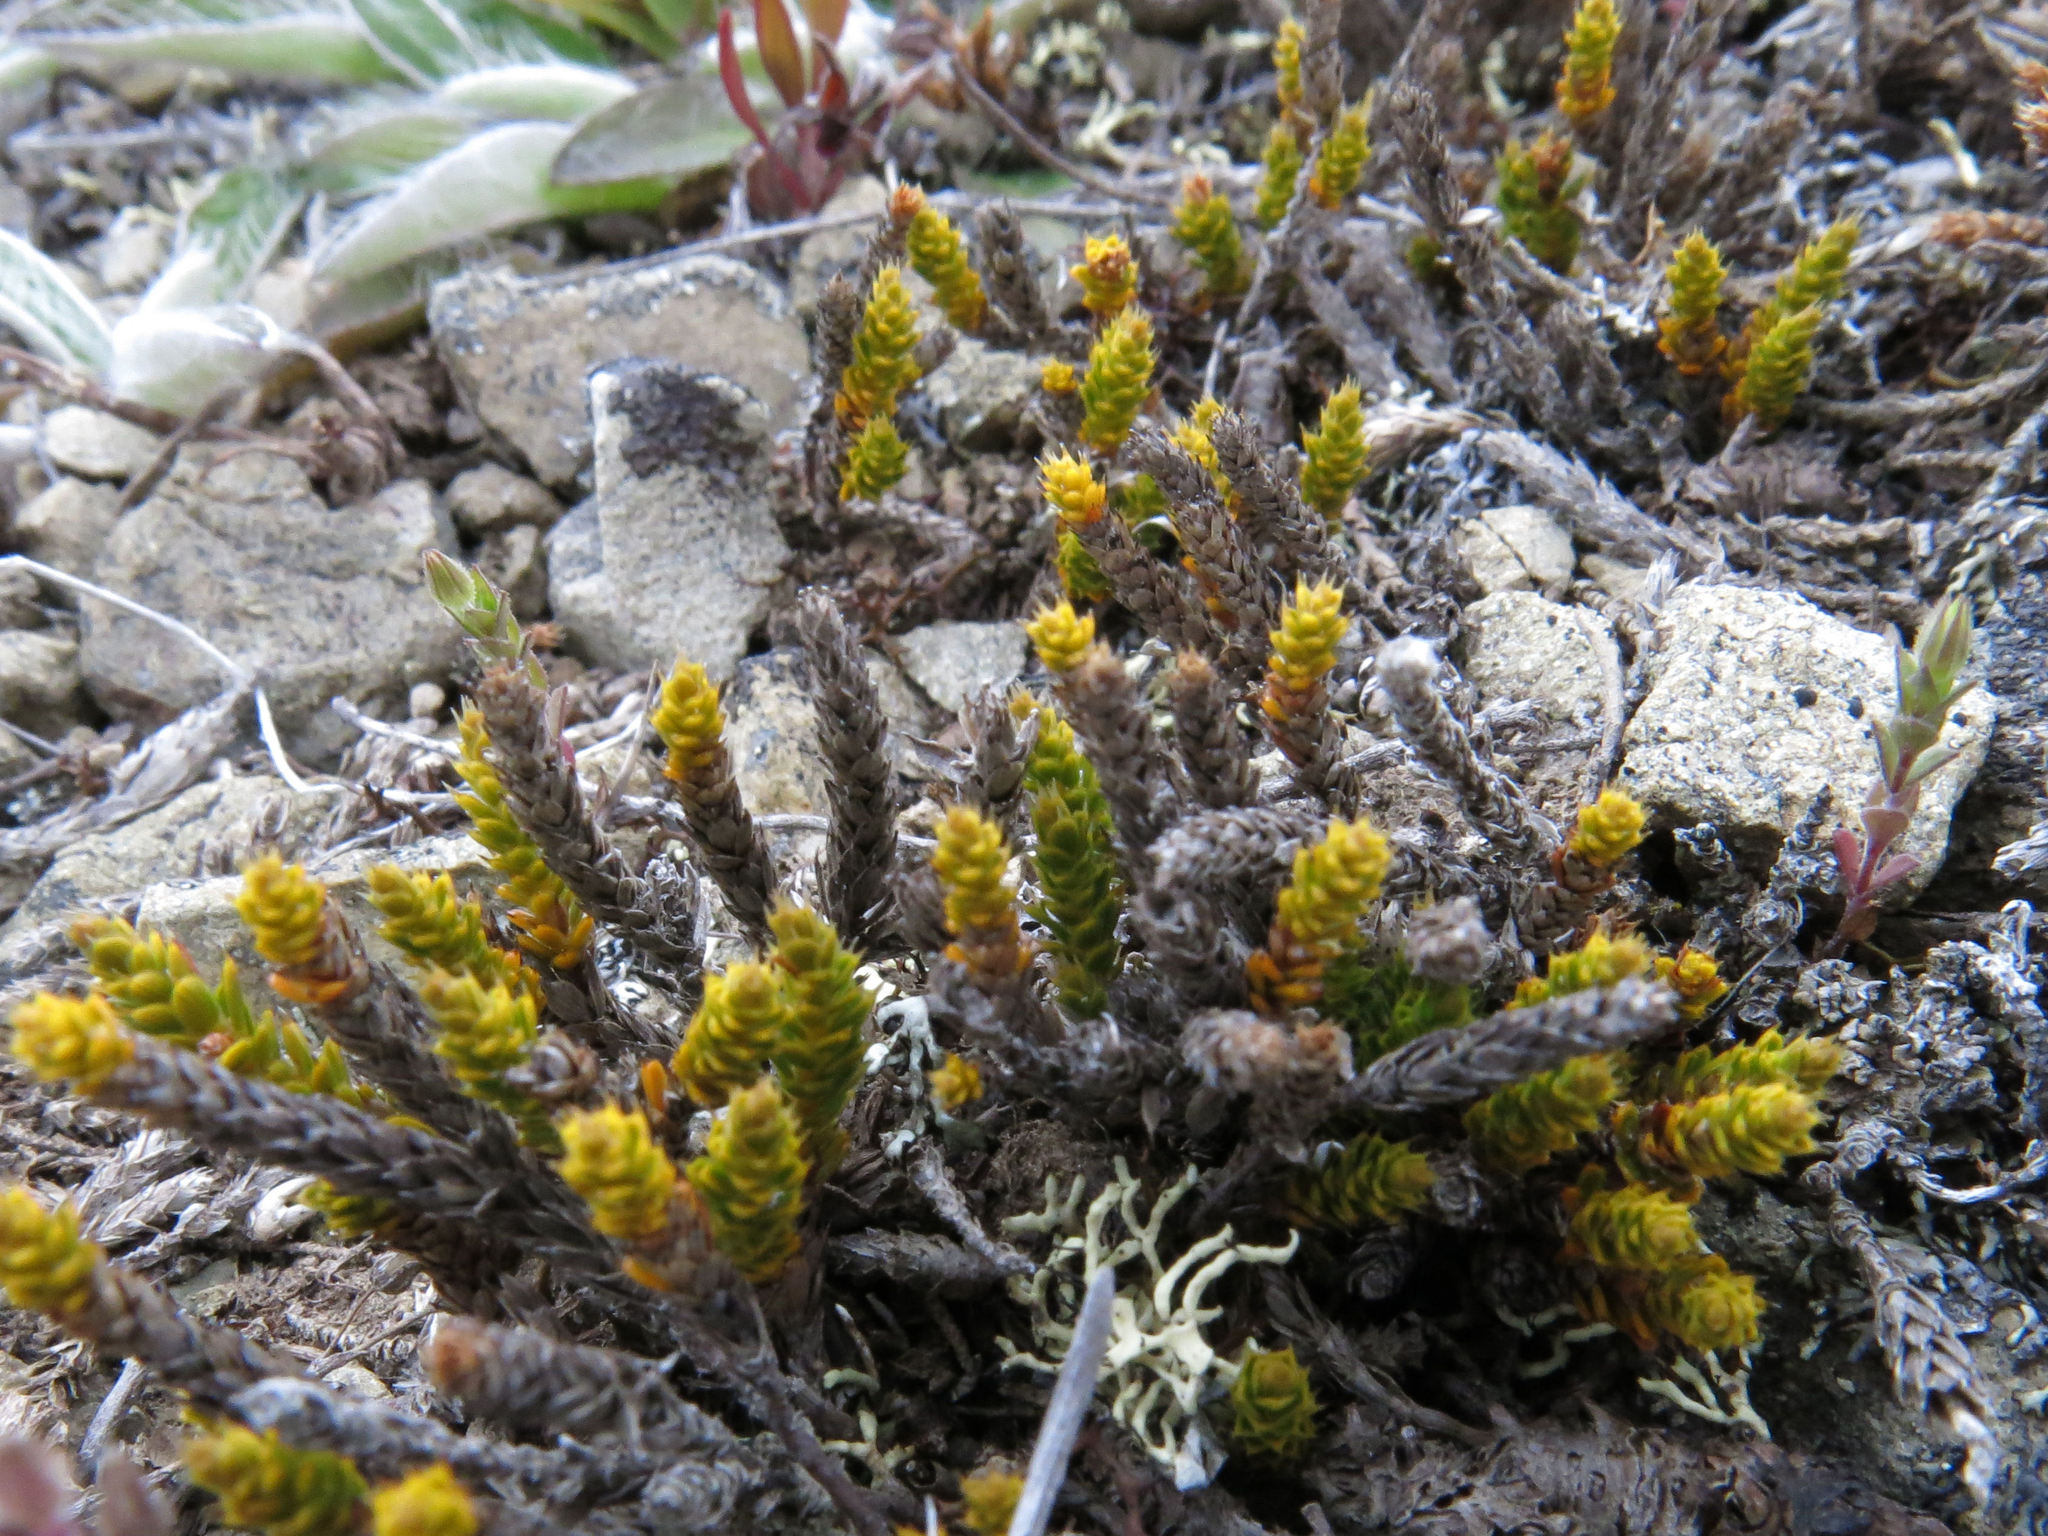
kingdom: Plantae
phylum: Tracheophyta
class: Magnoliopsida
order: Ericales
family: Ericaceae
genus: Styphelia
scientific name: Styphelia nana
